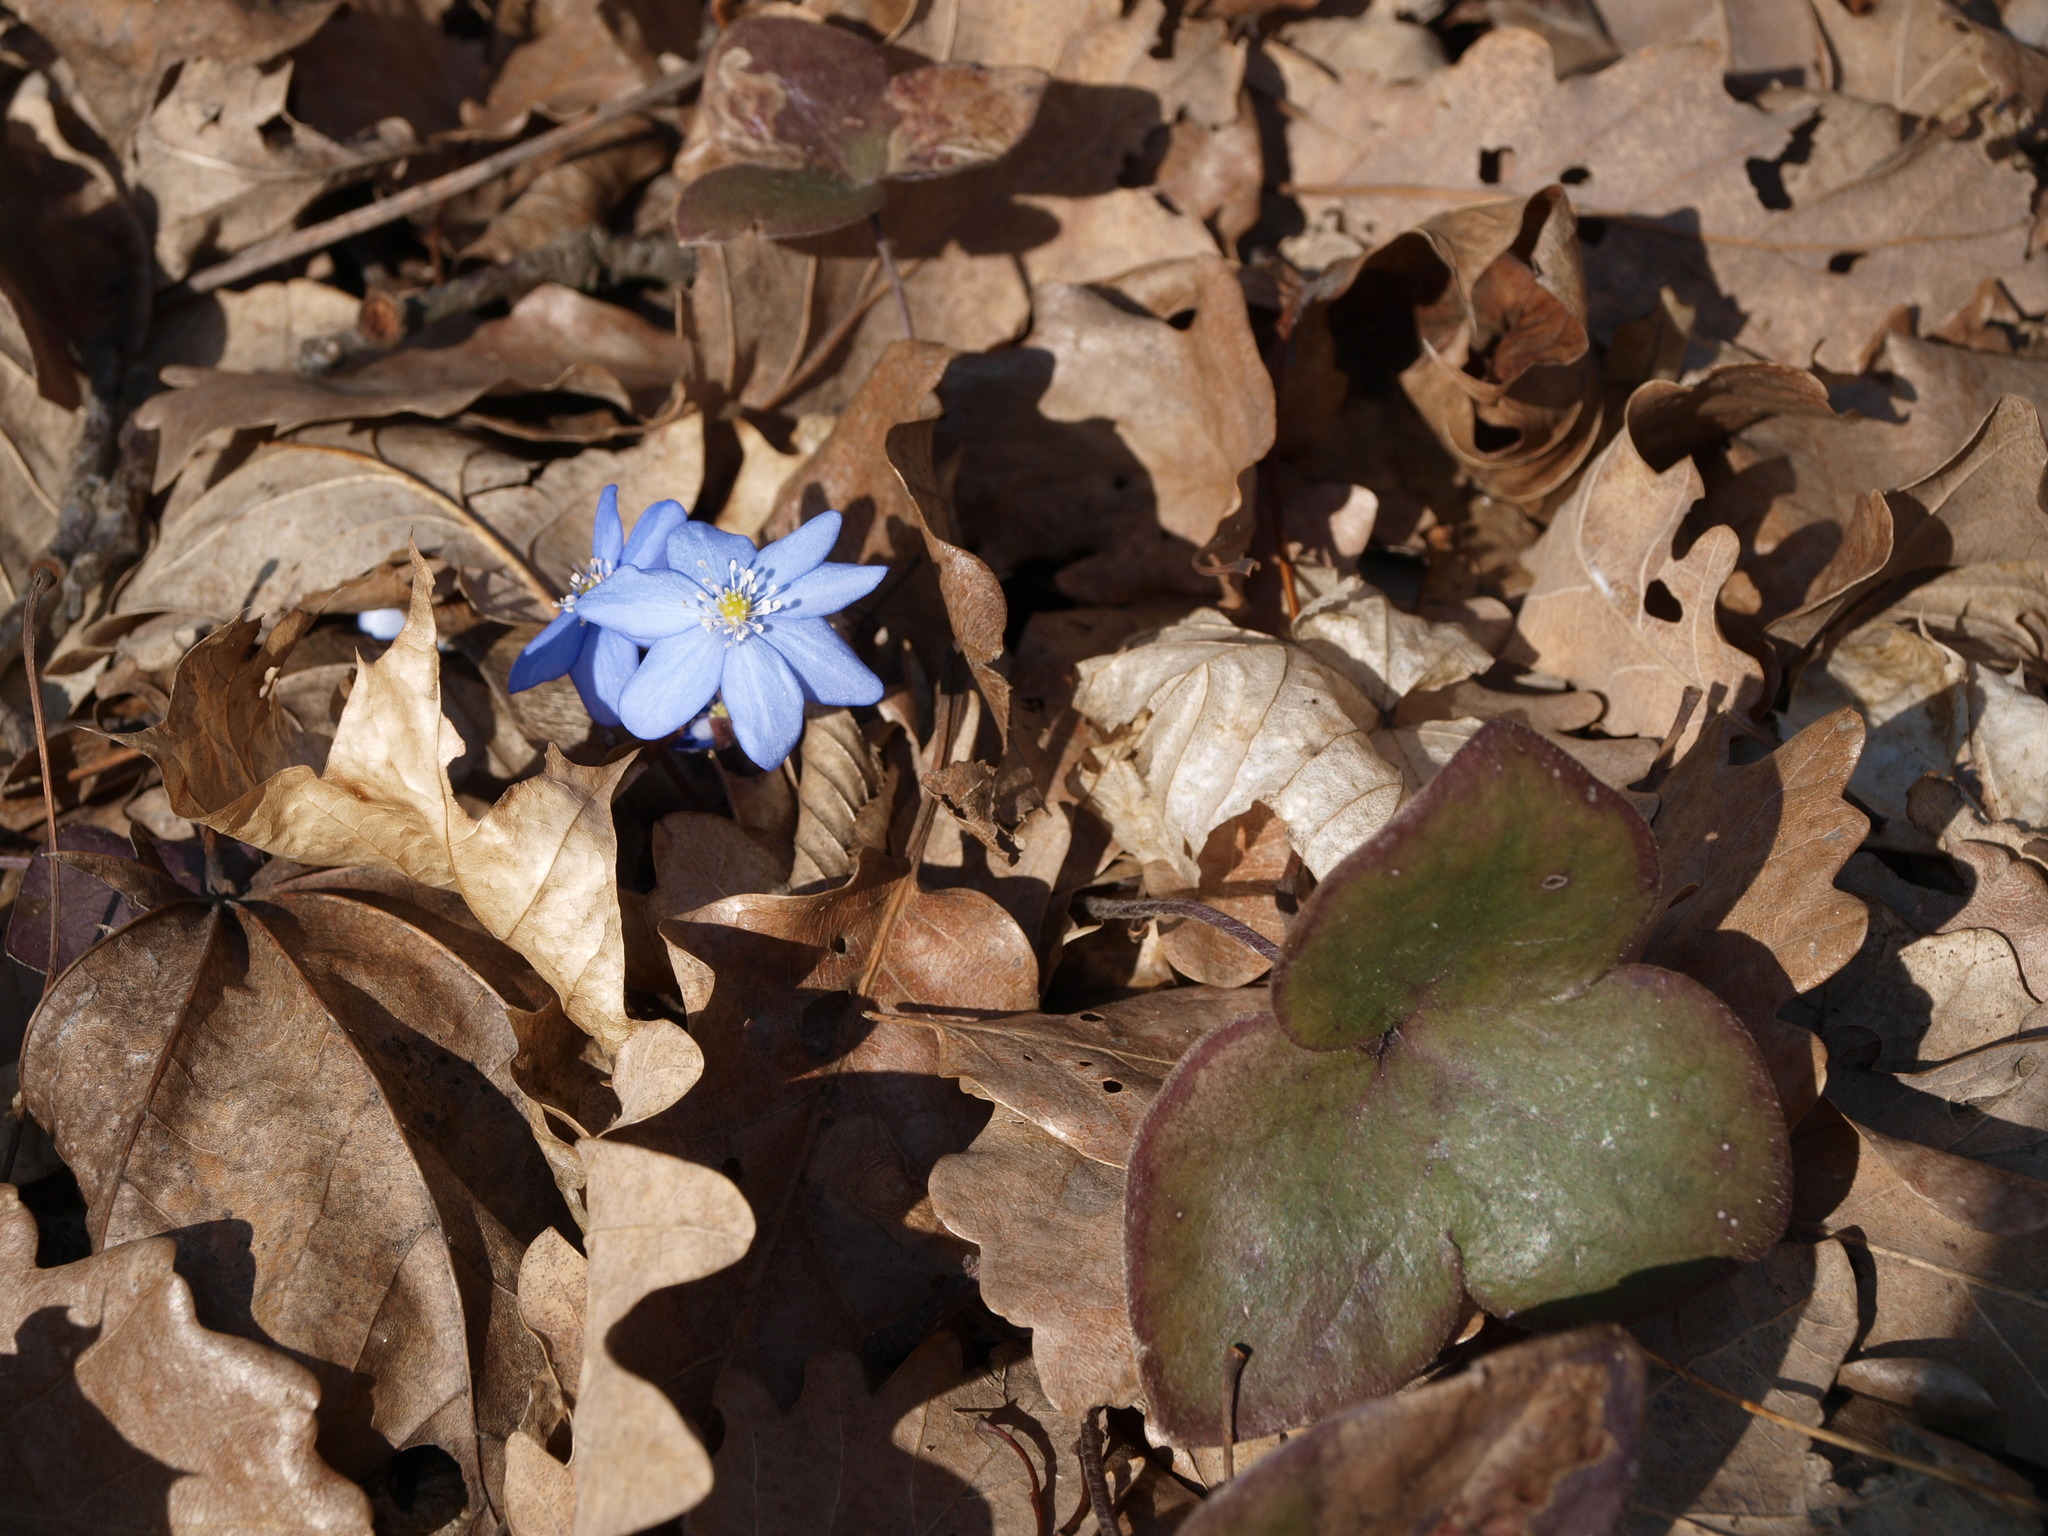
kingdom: Plantae
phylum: Tracheophyta
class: Magnoliopsida
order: Ranunculales
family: Ranunculaceae
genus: Hepatica
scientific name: Hepatica nobilis
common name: Liverleaf
